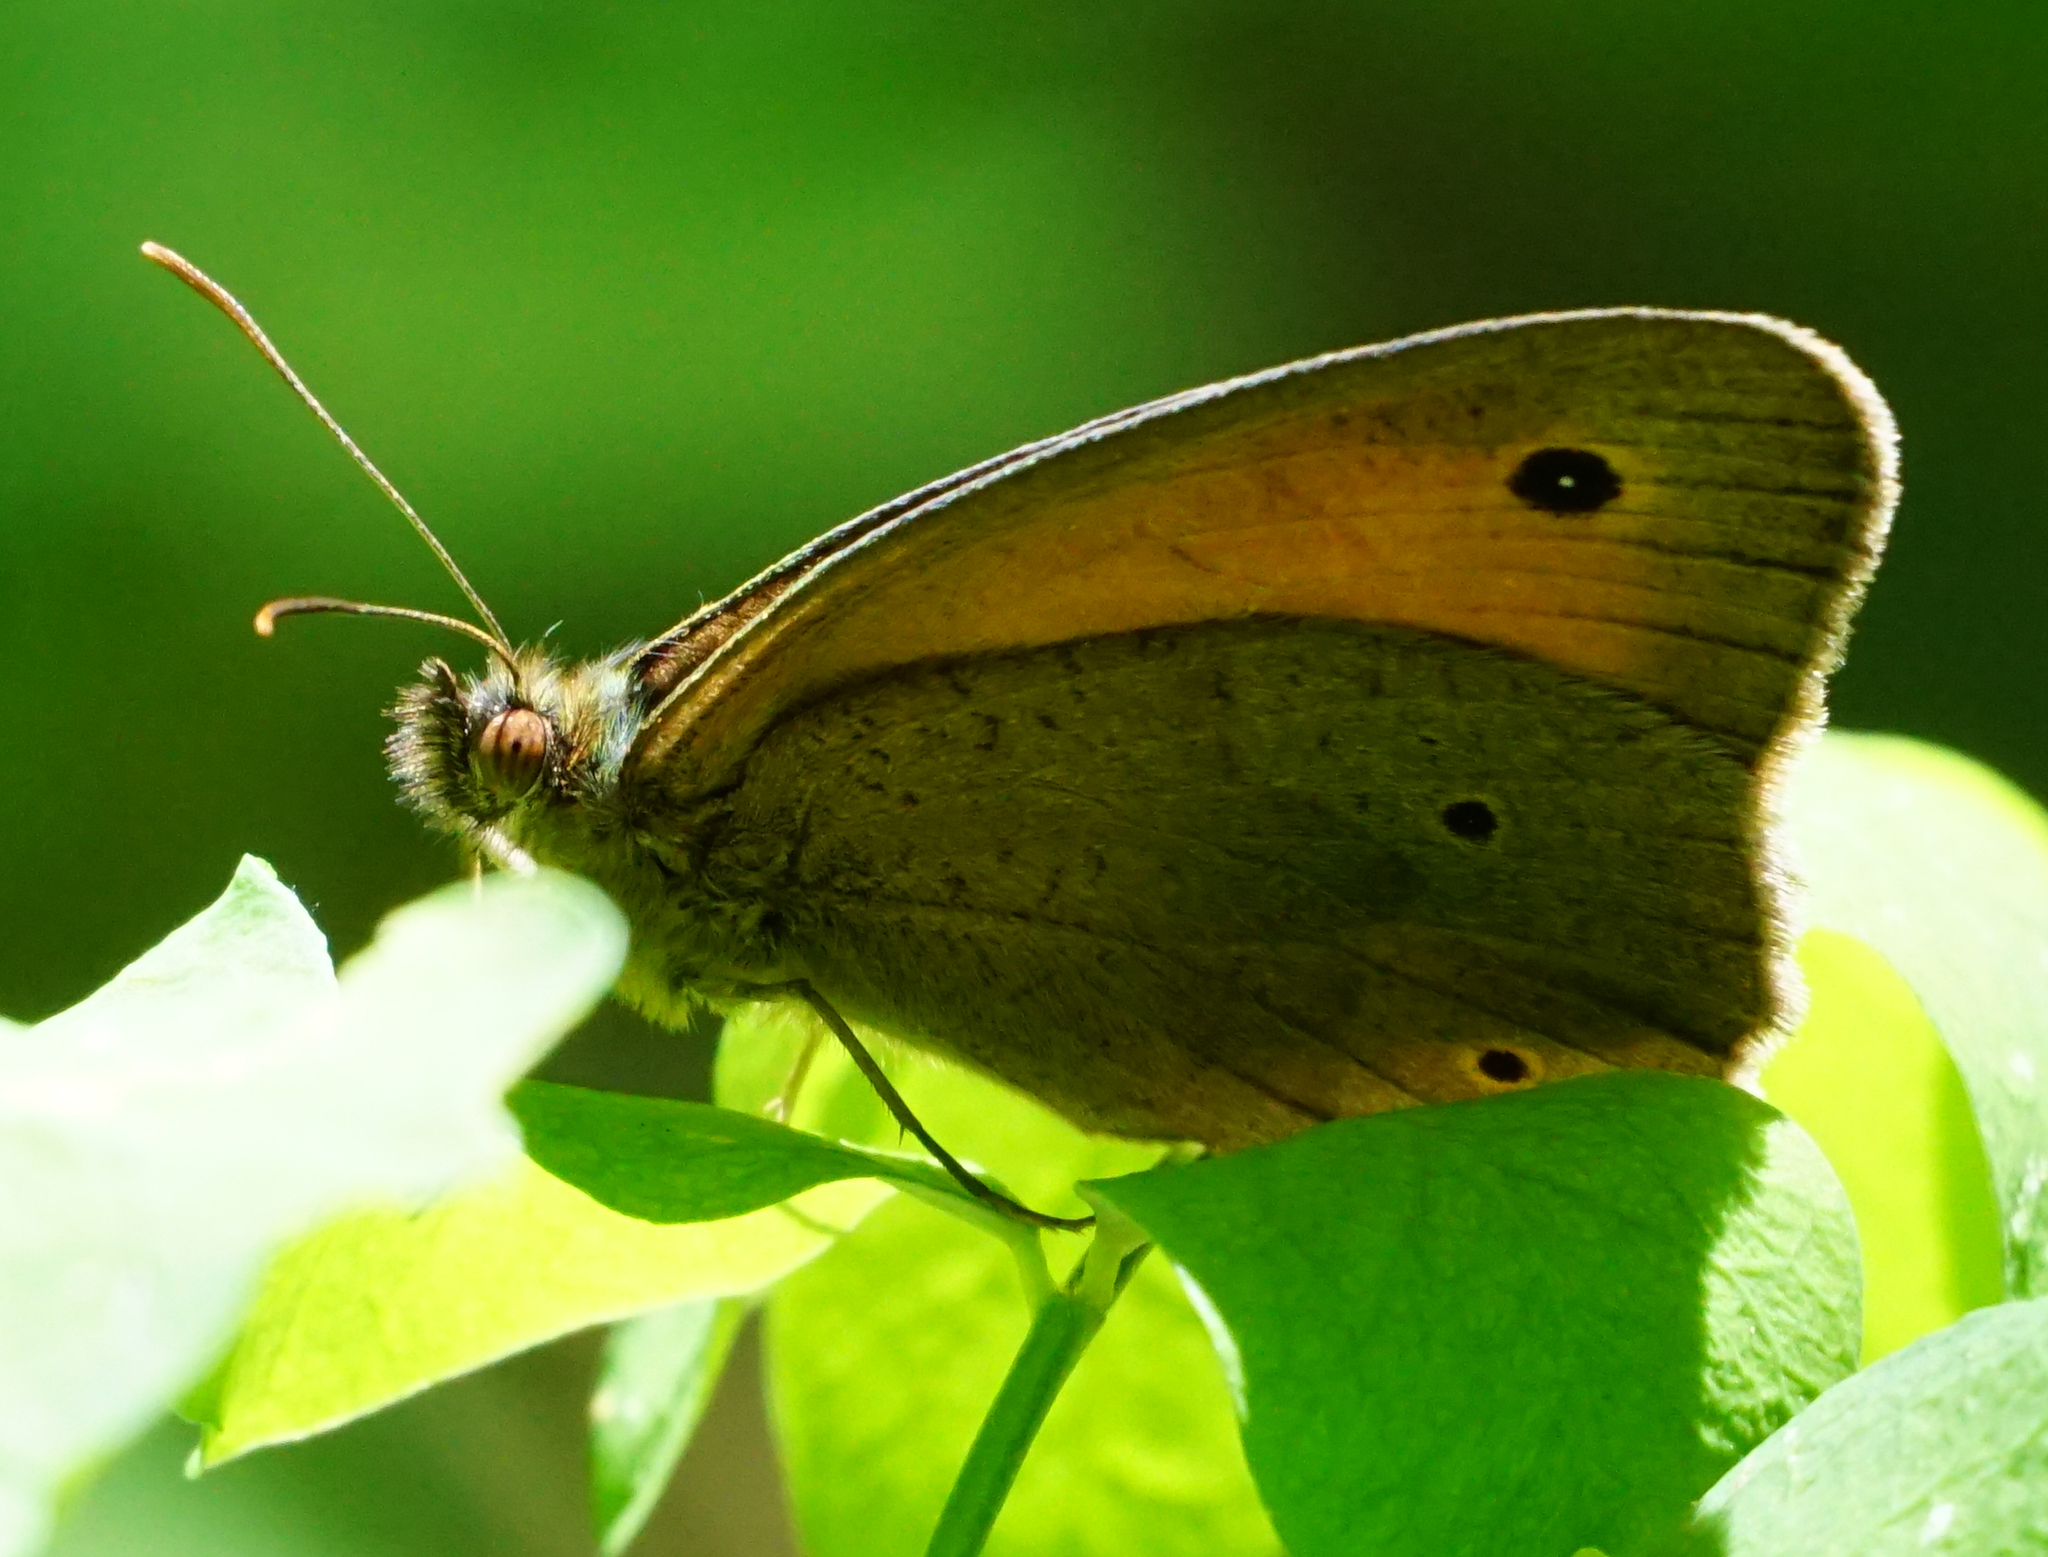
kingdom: Animalia
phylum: Arthropoda
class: Insecta
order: Lepidoptera
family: Nymphalidae
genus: Maniola
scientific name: Maniola jurtina
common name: Meadow brown
